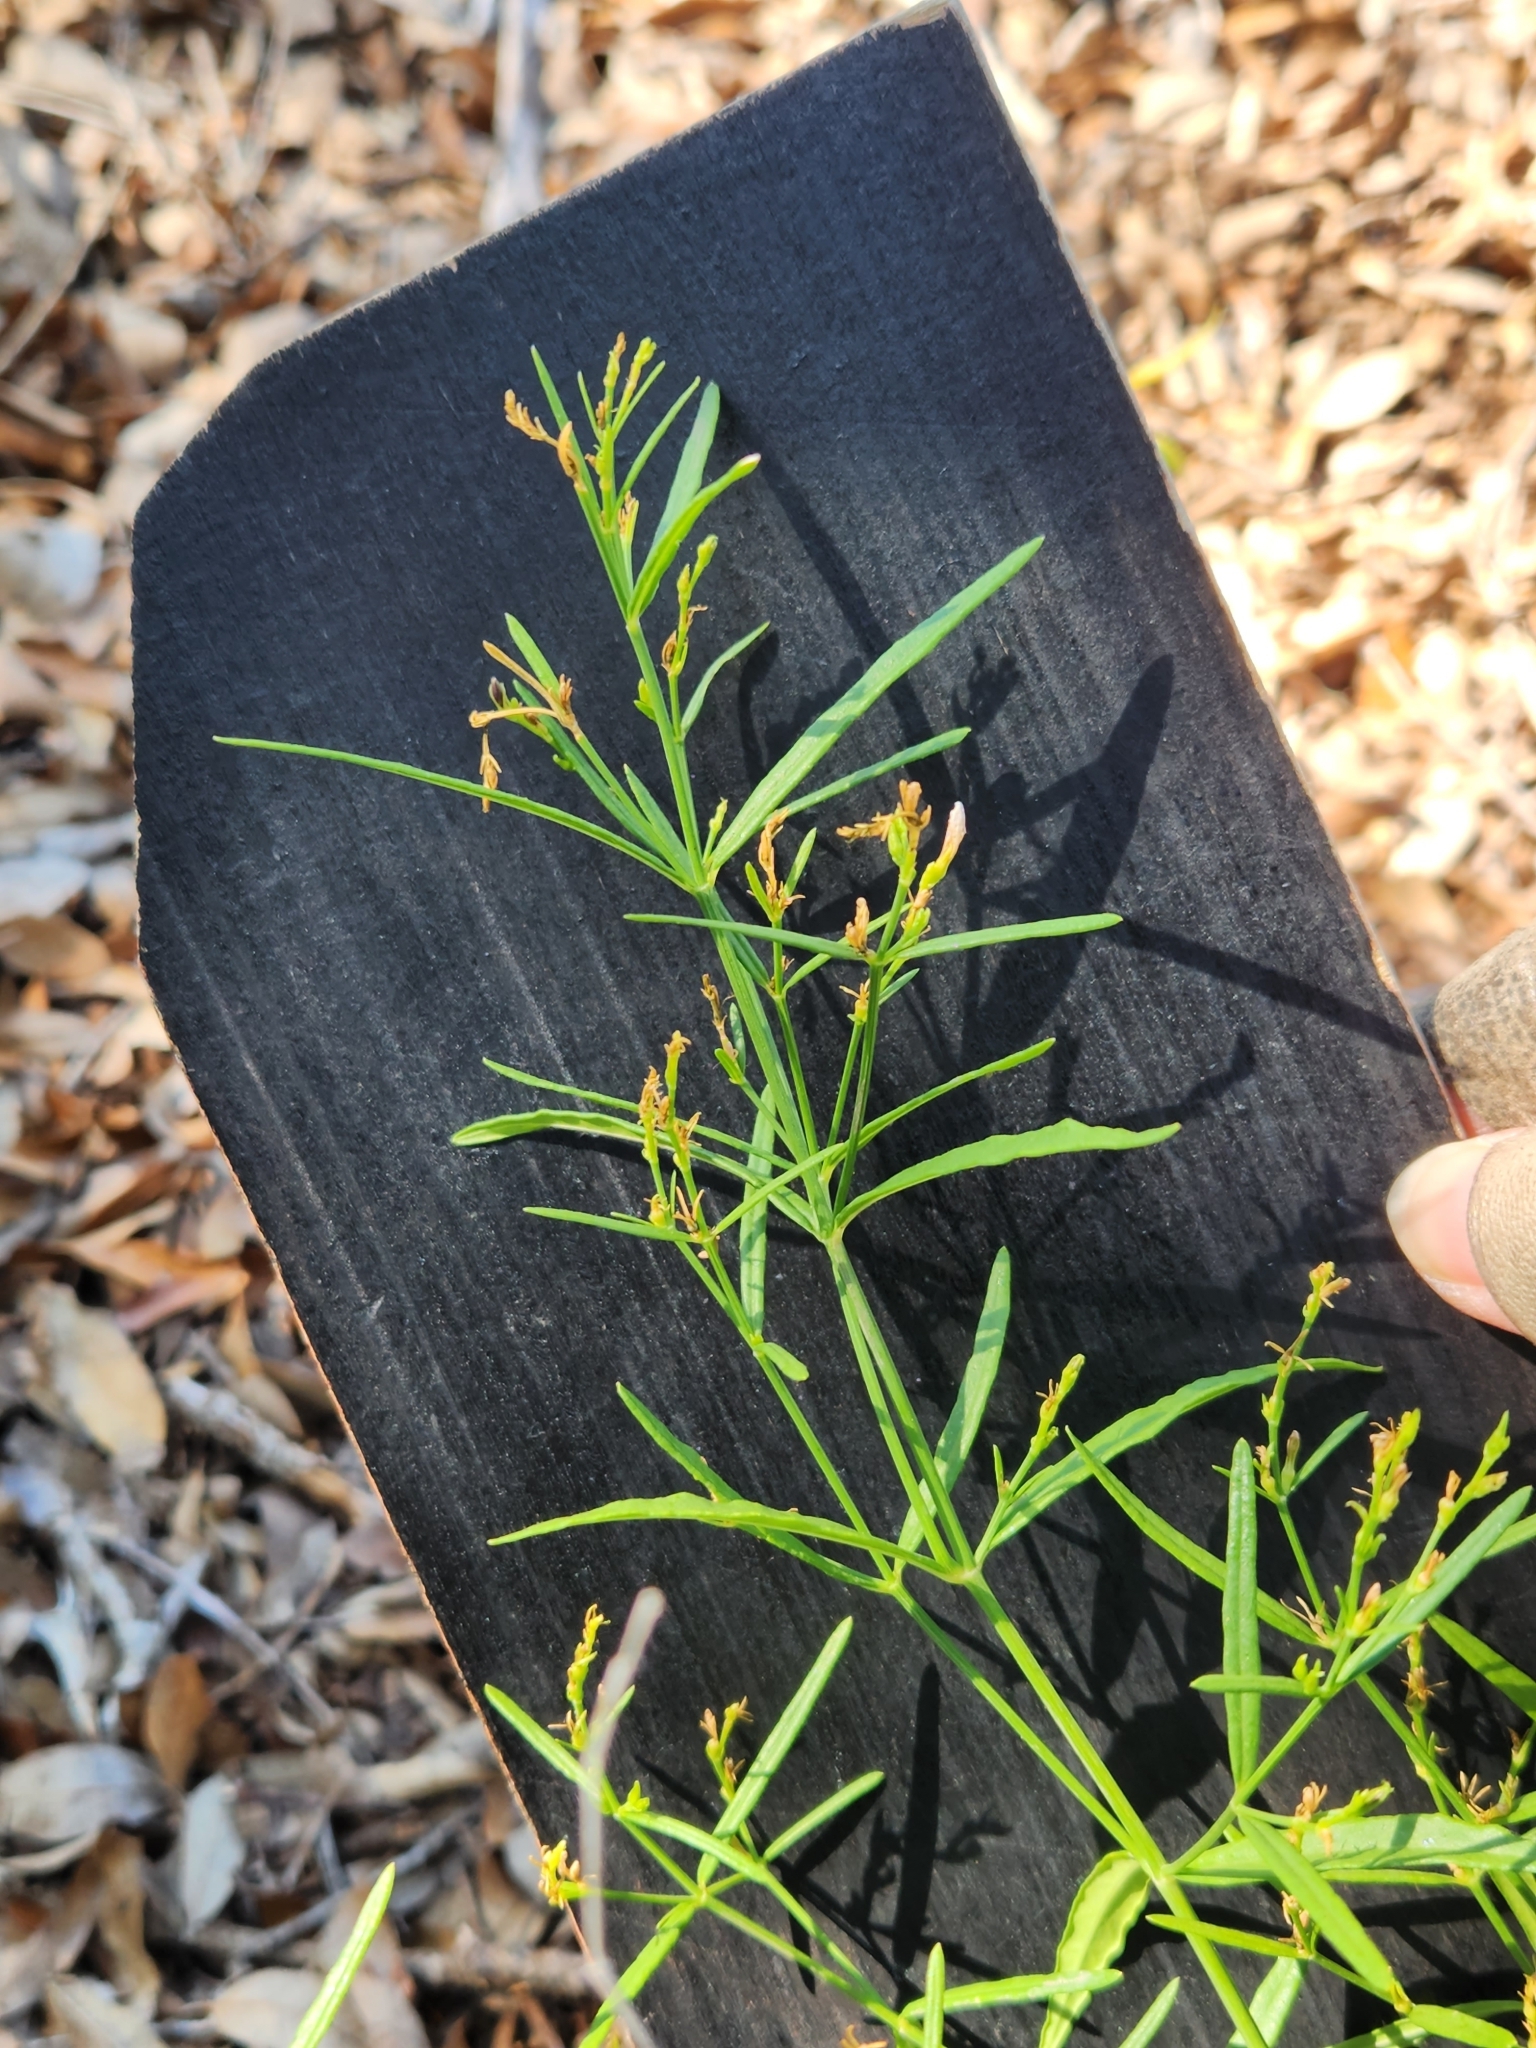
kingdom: Plantae
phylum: Tracheophyta
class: Magnoliopsida
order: Lamiales
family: Acanthaceae
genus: Carlowrightia
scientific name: Carlowrightia linearifolia
